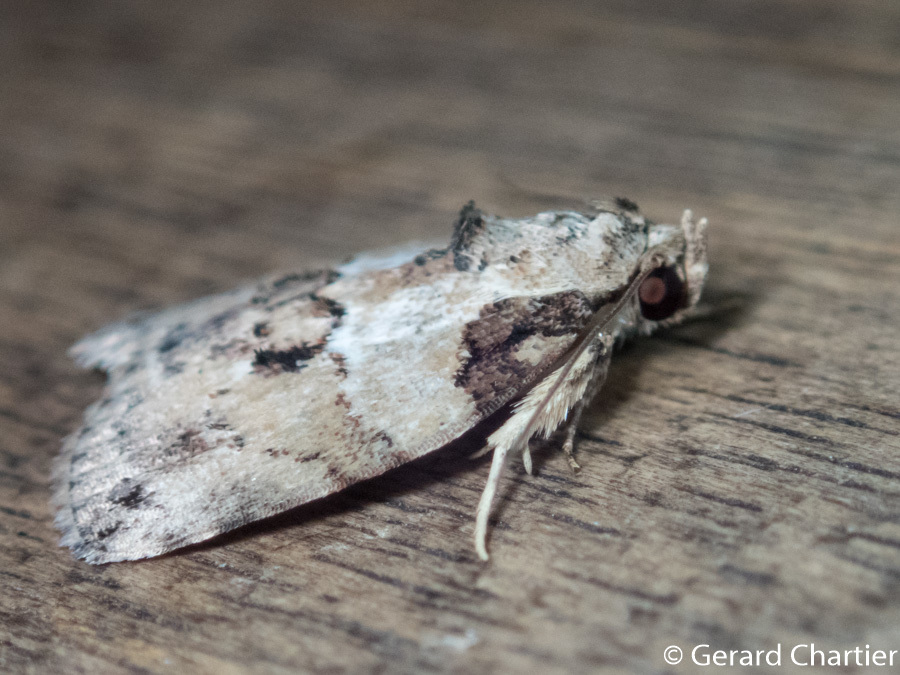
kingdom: Animalia
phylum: Arthropoda
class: Insecta
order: Lepidoptera
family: Nolidae
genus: Giaura
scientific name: Giaura tortricoides
